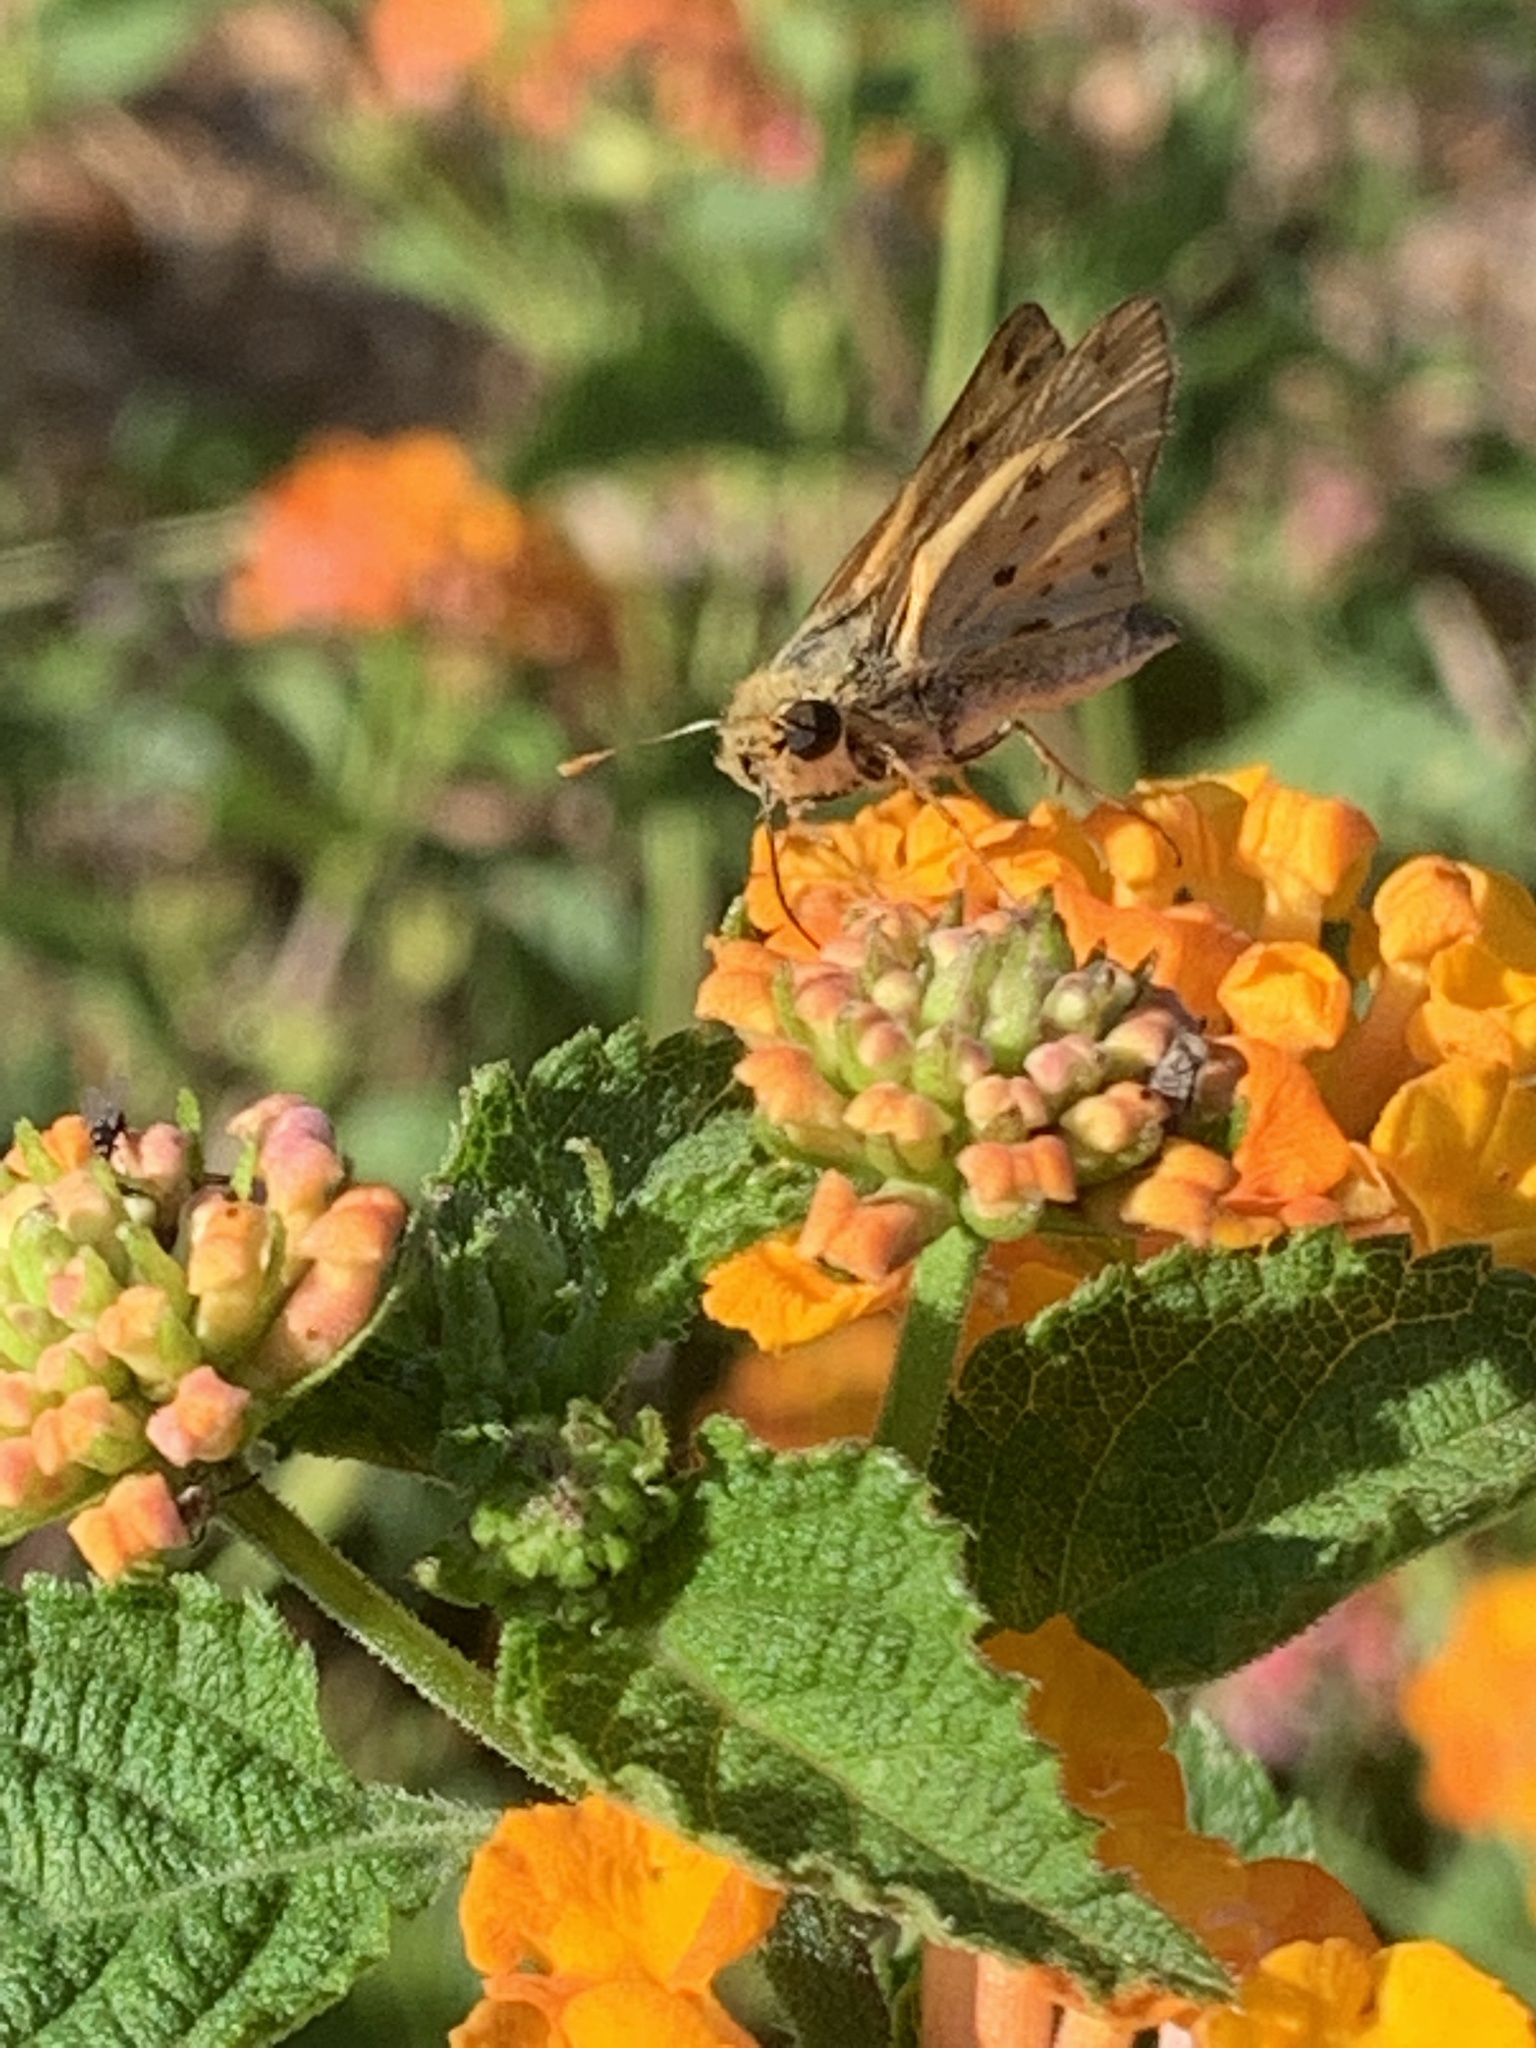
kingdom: Animalia
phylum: Arthropoda
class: Insecta
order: Lepidoptera
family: Hesperiidae
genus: Hylephila
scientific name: Hylephila phyleus
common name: Fiery skipper
